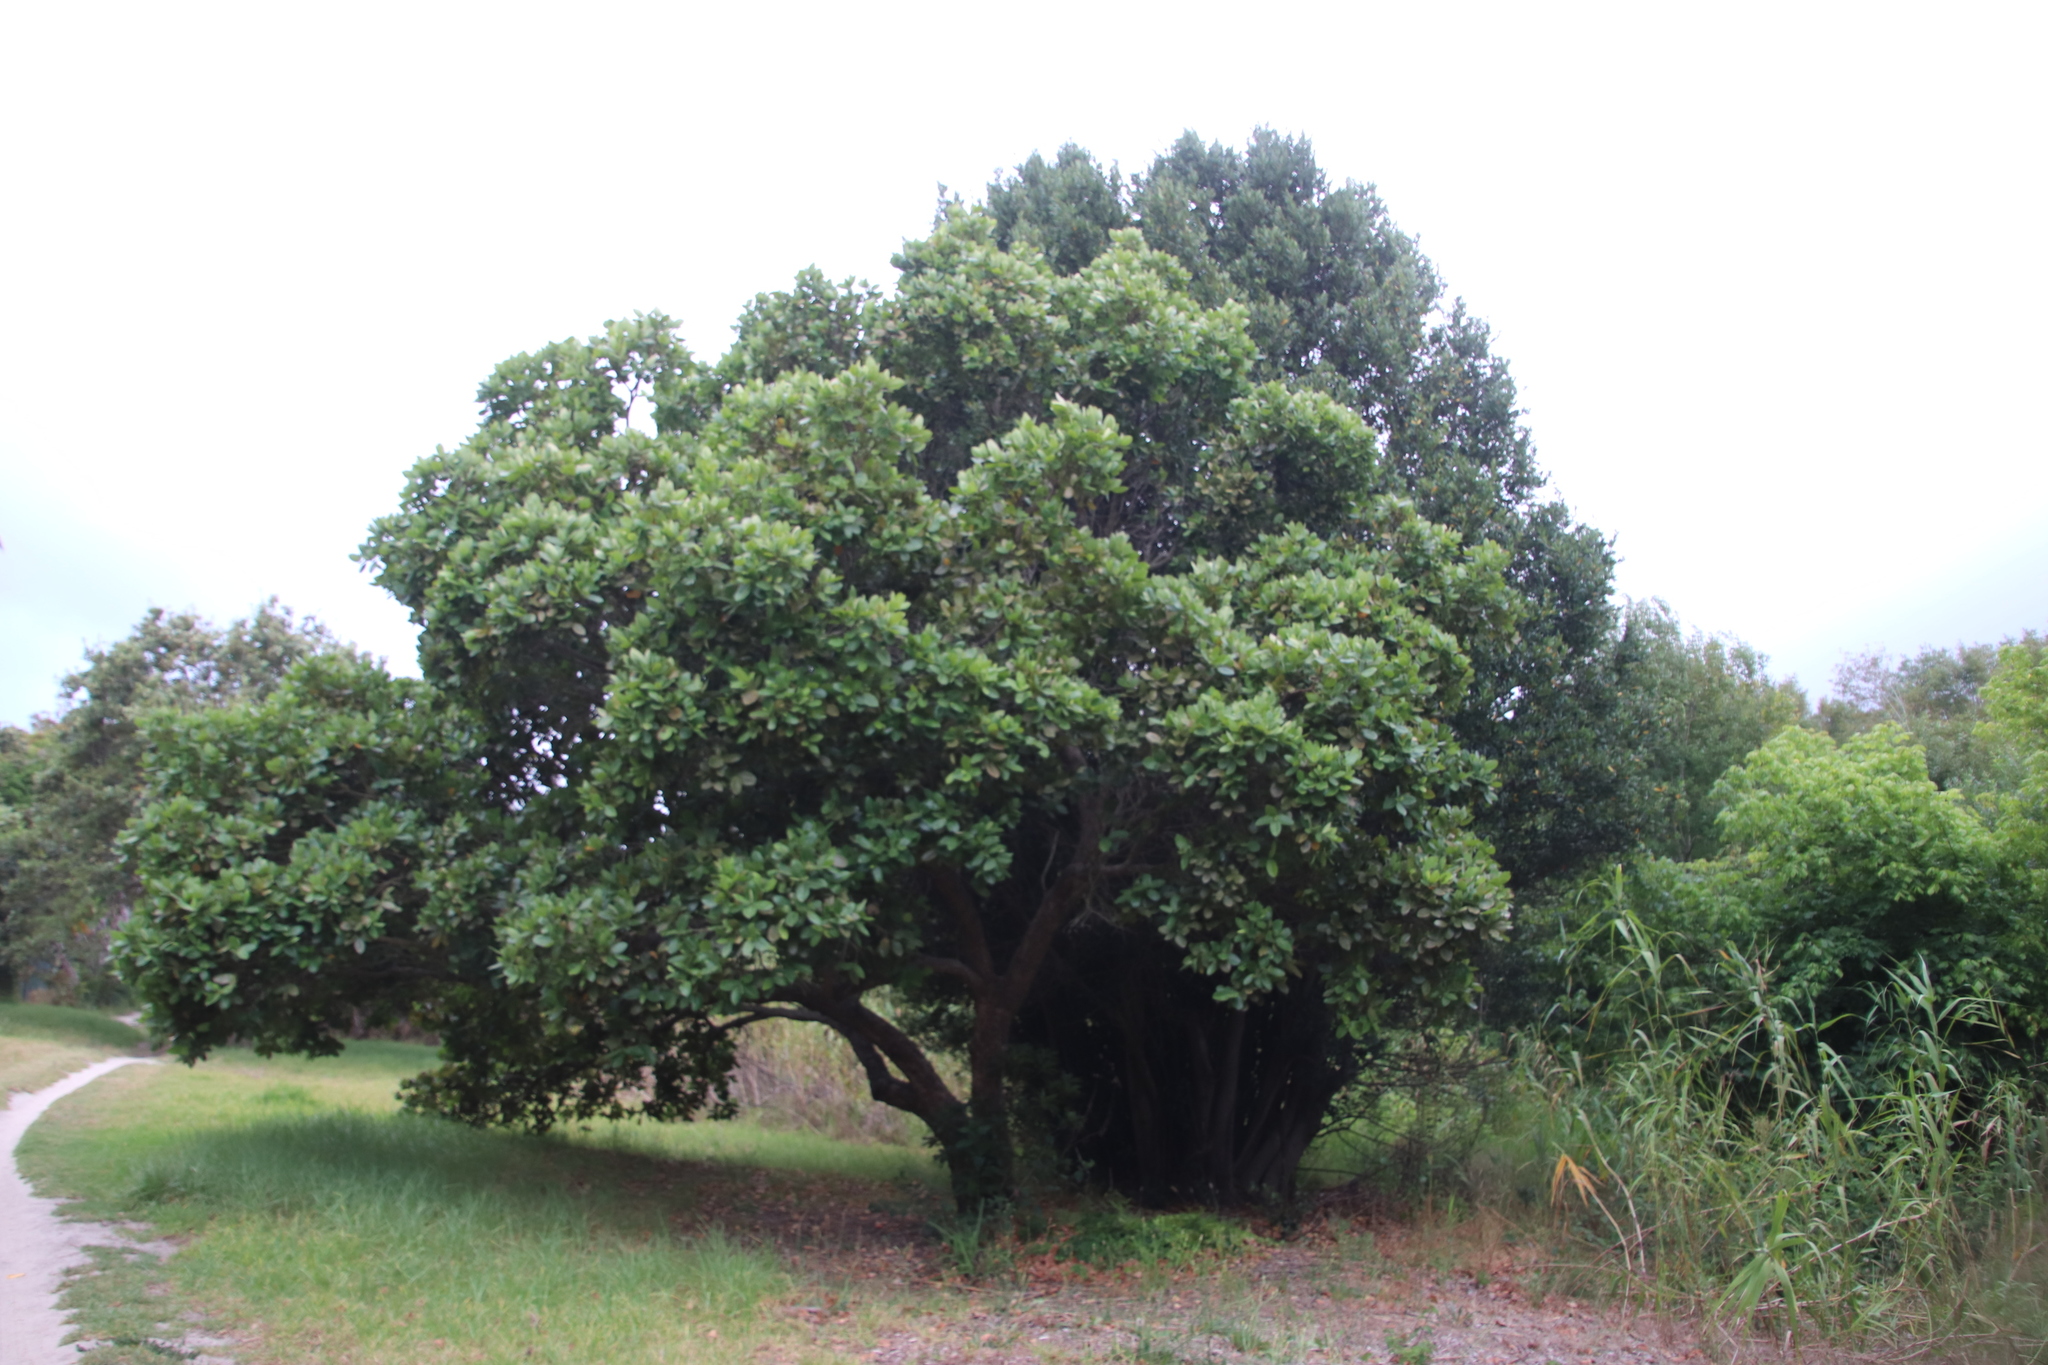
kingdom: Plantae
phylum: Tracheophyta
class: Magnoliopsida
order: Myrtales
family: Myrtaceae
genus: Syzygium
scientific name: Syzygium cordatum
